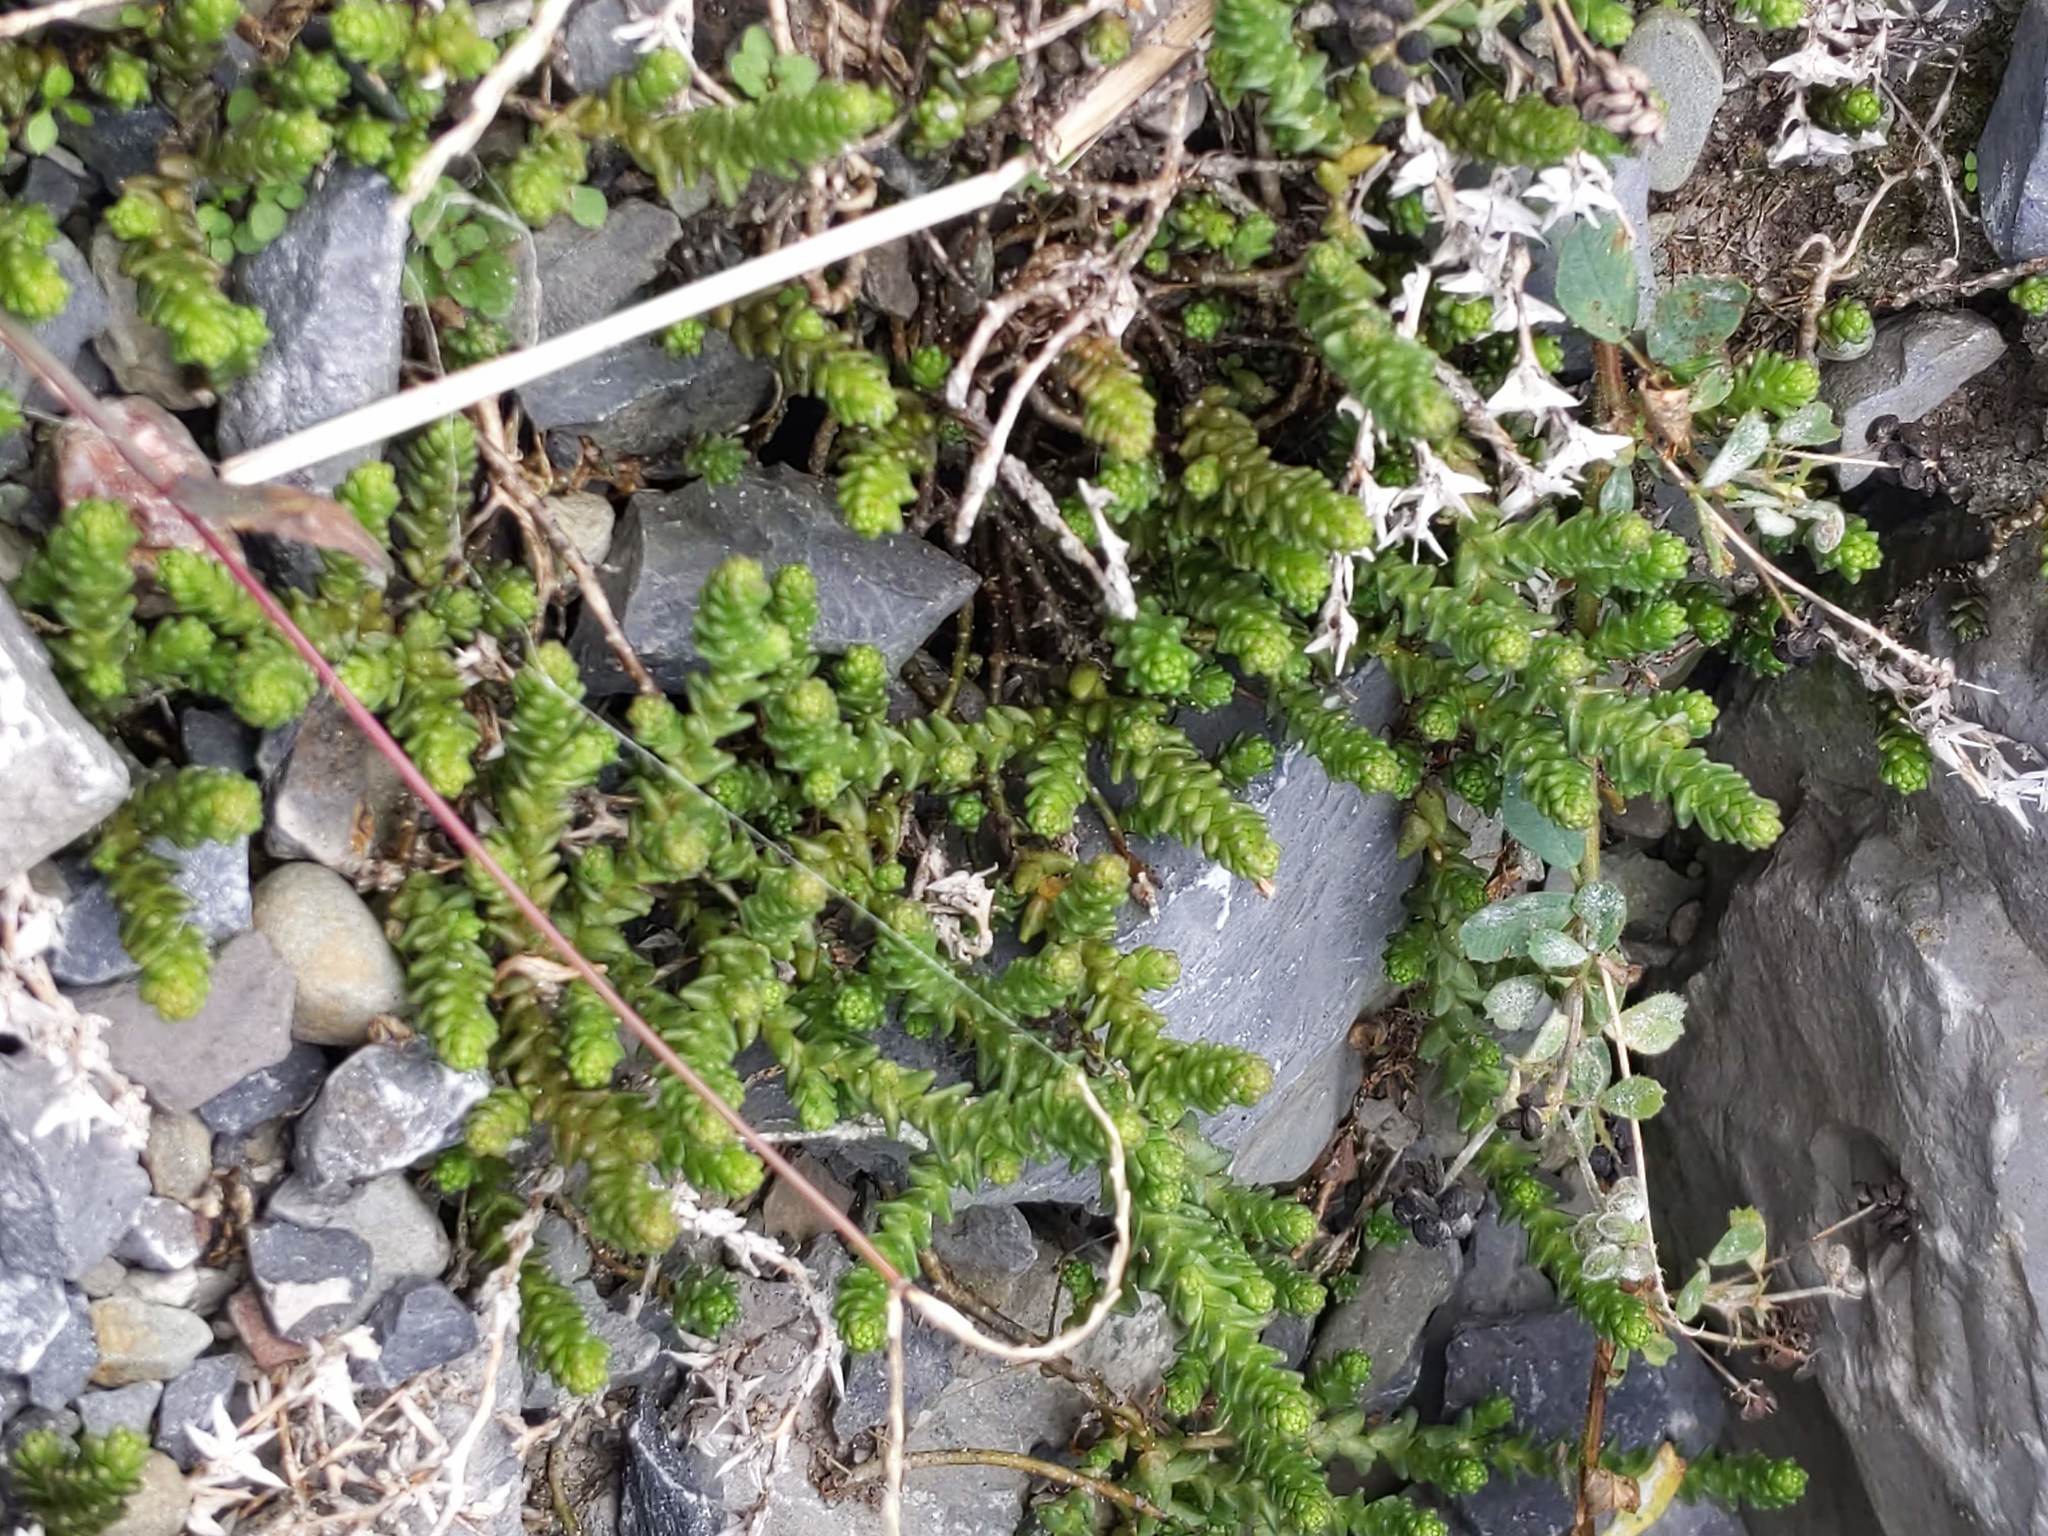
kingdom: Plantae
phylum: Tracheophyta
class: Magnoliopsida
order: Saxifragales
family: Crassulaceae
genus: Sedum
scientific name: Sedum acre
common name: Biting stonecrop
